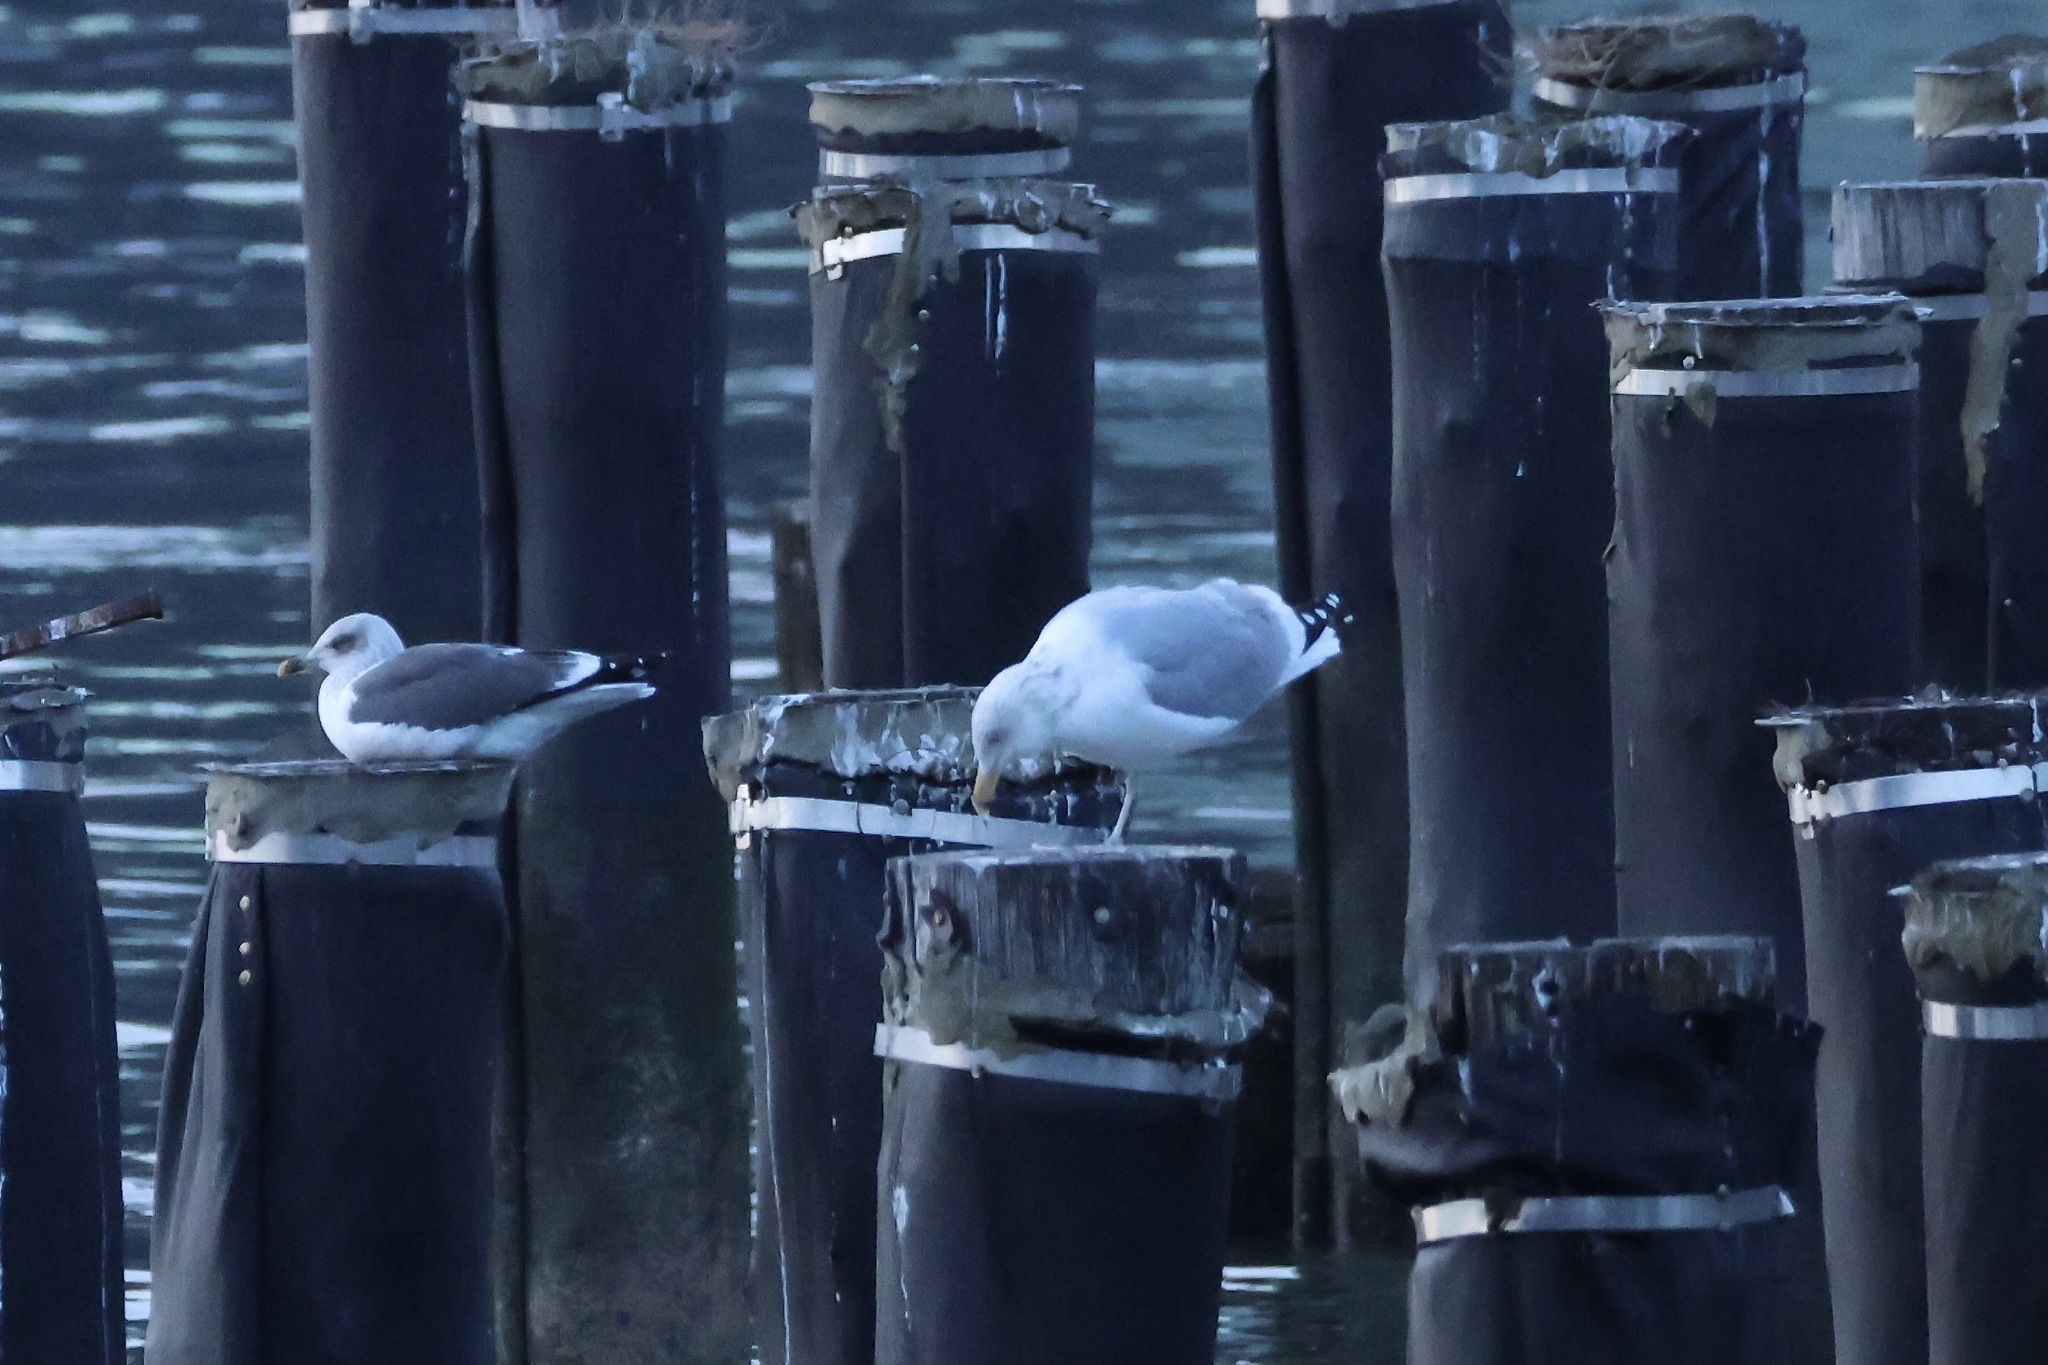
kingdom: Animalia
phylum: Chordata
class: Aves
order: Charadriiformes
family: Laridae
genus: Larus
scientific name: Larus argentatus
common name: Herring gull
